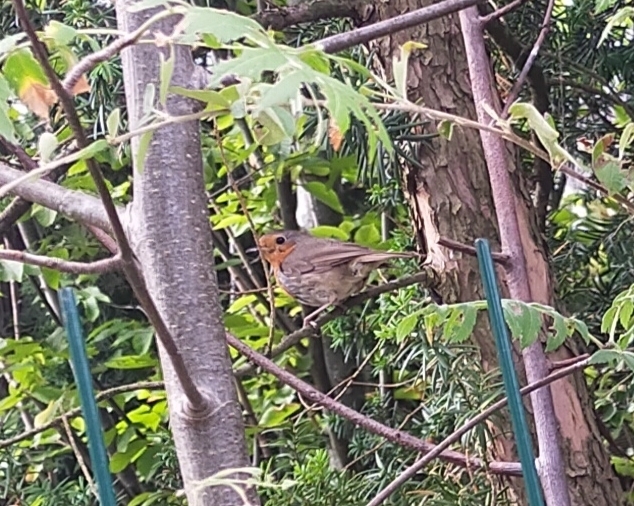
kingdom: Animalia
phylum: Chordata
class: Aves
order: Passeriformes
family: Muscicapidae
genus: Erithacus
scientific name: Erithacus rubecula
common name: European robin
